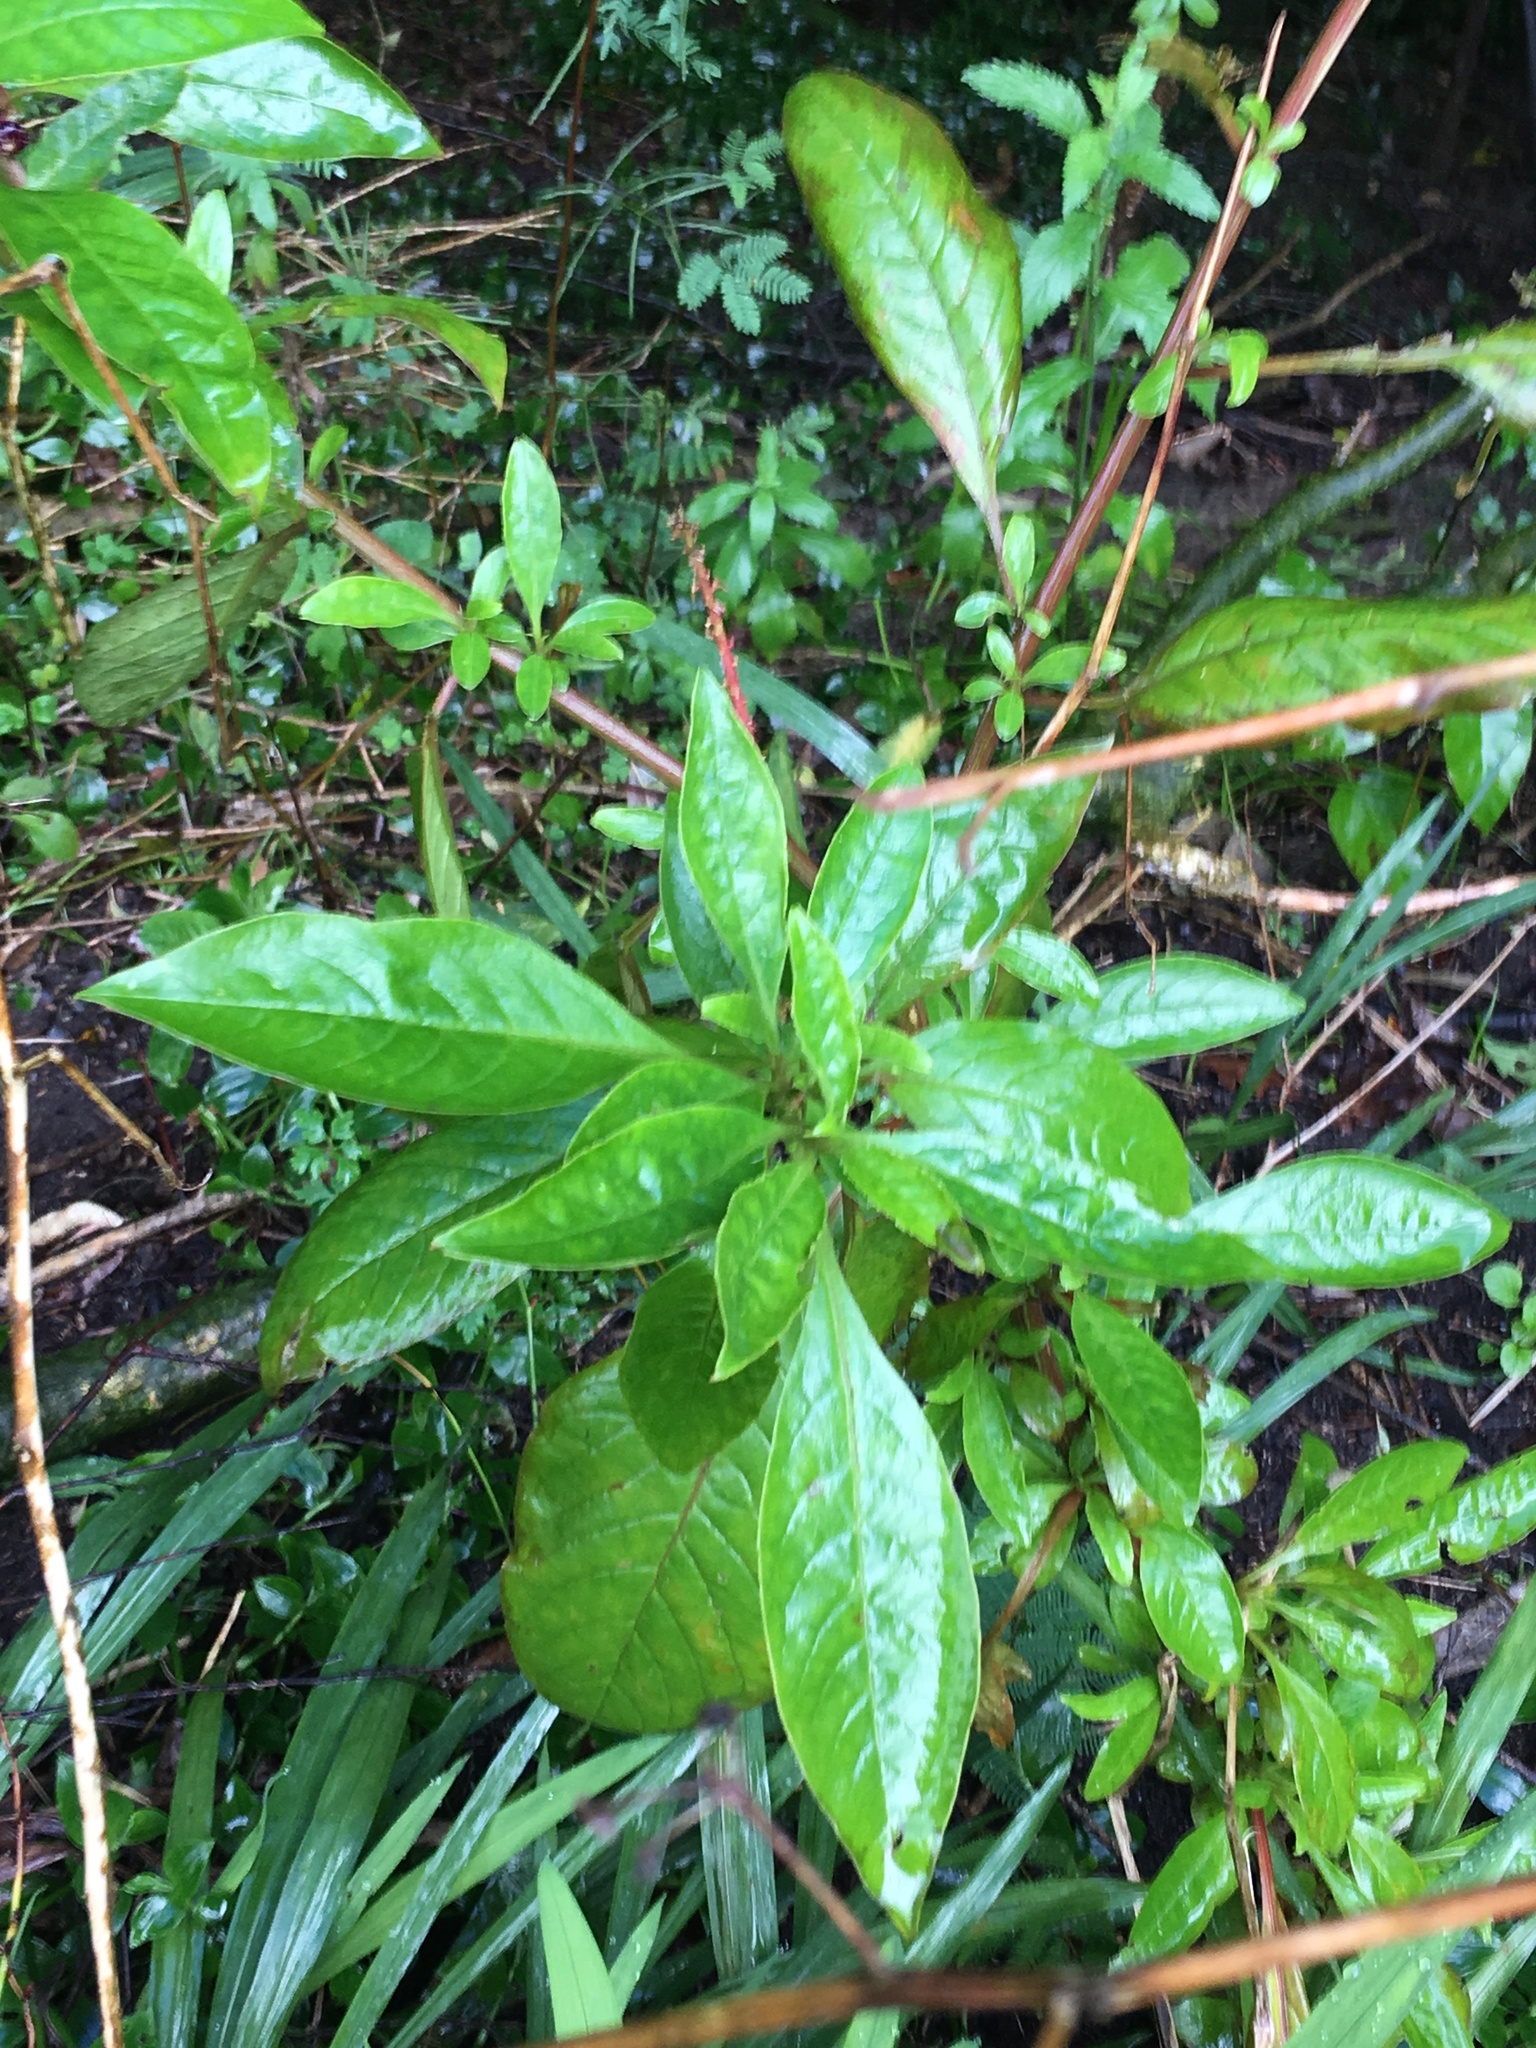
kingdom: Plantae
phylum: Tracheophyta
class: Magnoliopsida
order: Caryophyllales
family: Phytolaccaceae
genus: Phytolacca
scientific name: Phytolacca icosandra
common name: Button pokeweed
